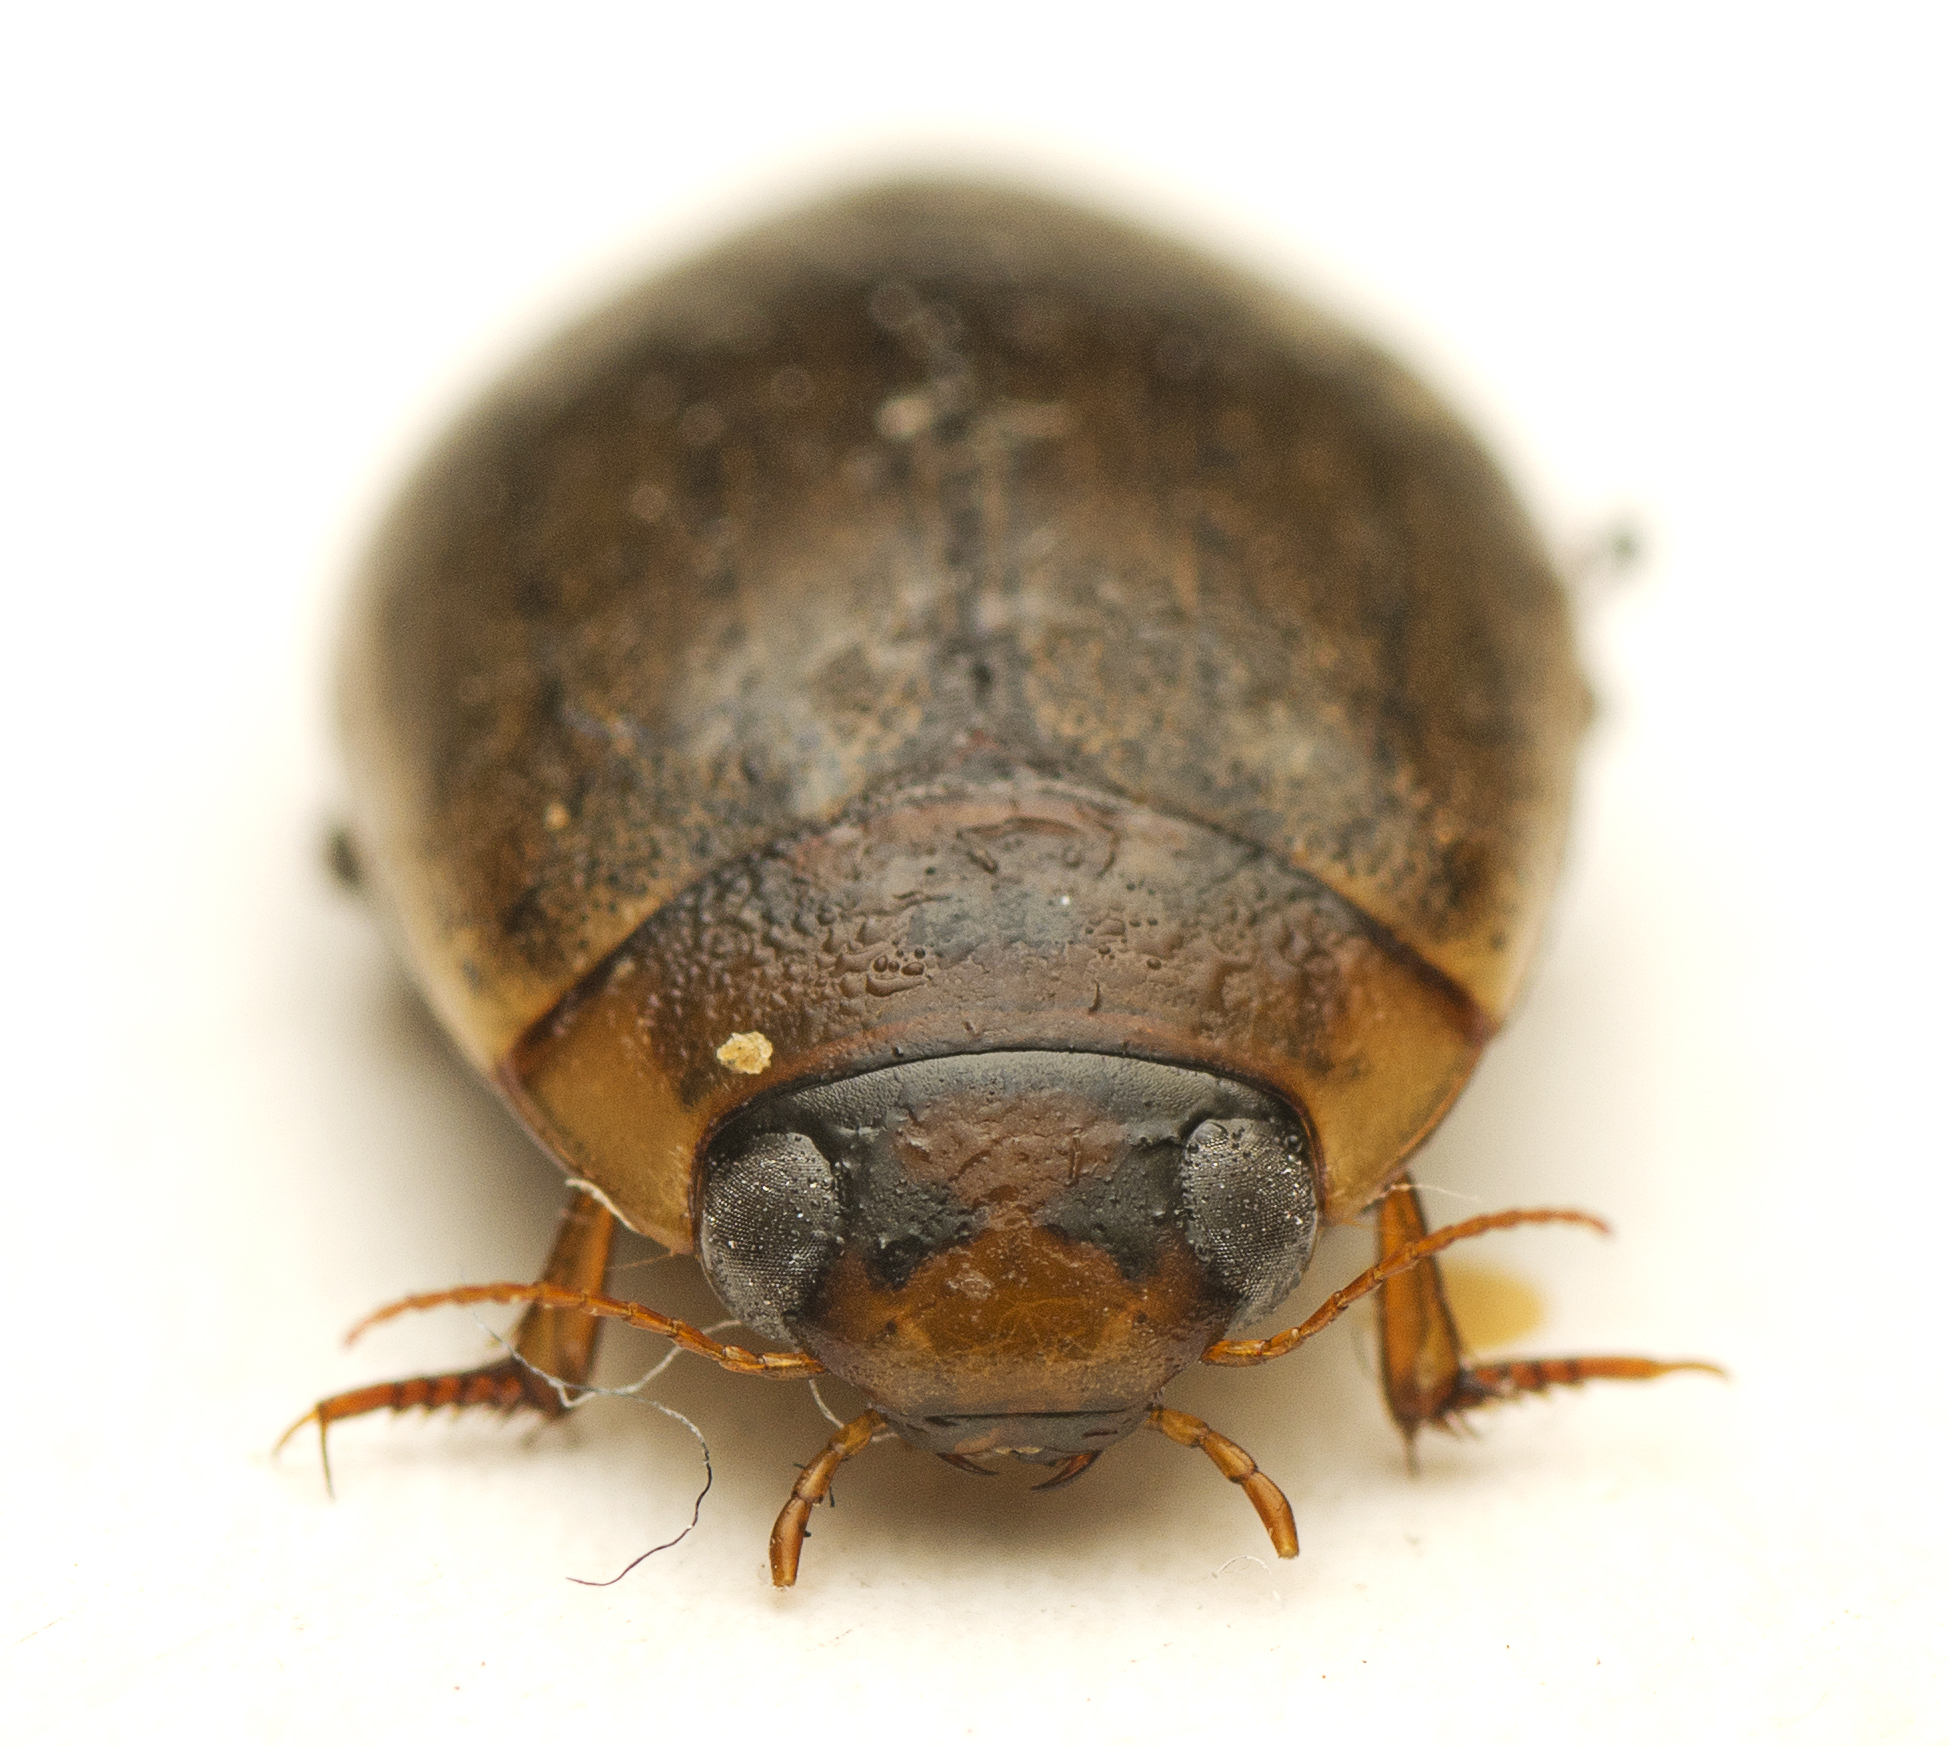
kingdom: Animalia
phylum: Arthropoda
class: Insecta
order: Coleoptera
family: Dytiscidae
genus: Rhantus
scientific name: Rhantus suturalis
